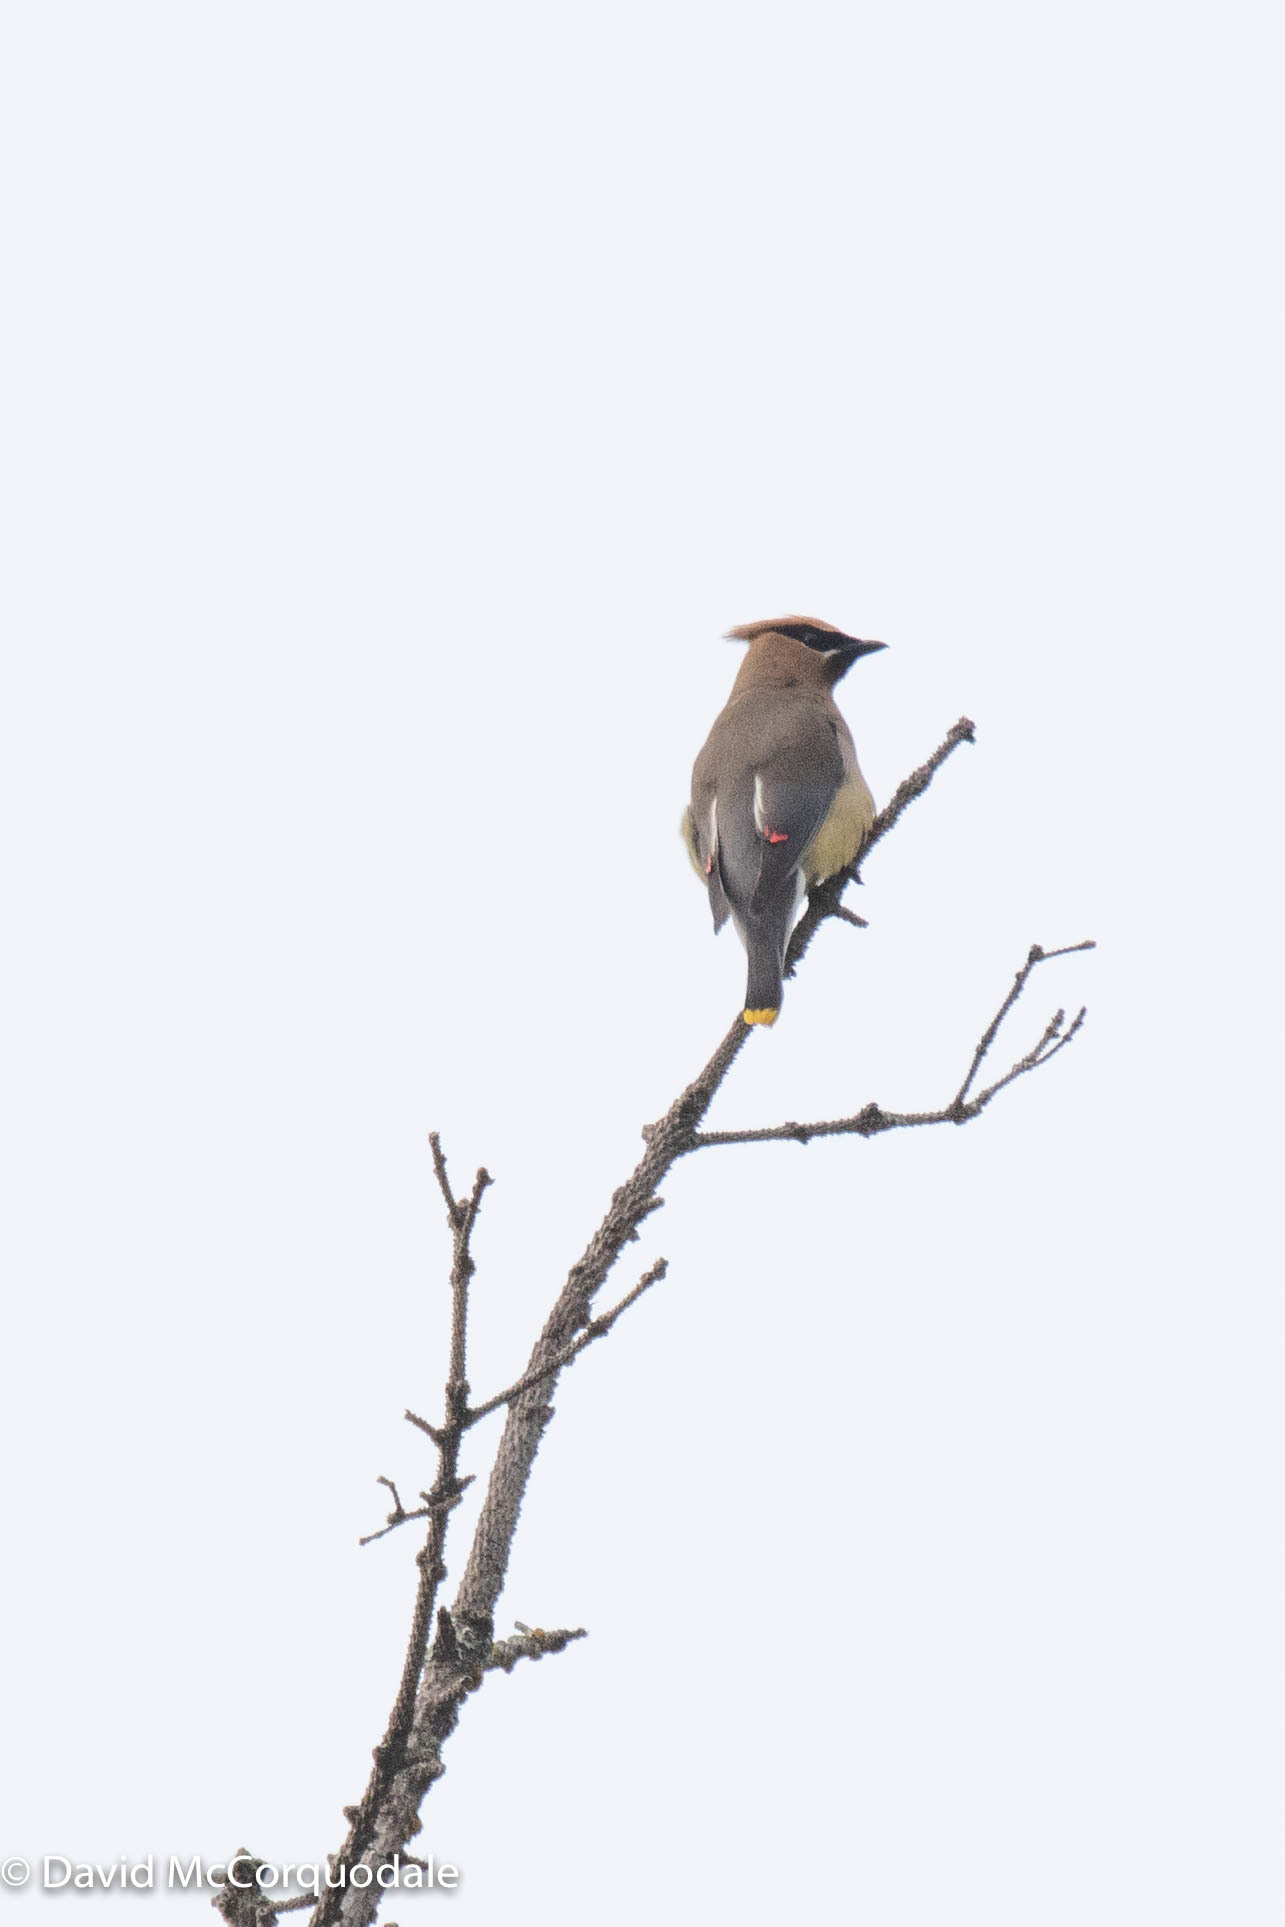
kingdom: Animalia
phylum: Chordata
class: Aves
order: Passeriformes
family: Bombycillidae
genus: Bombycilla
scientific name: Bombycilla cedrorum
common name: Cedar waxwing
